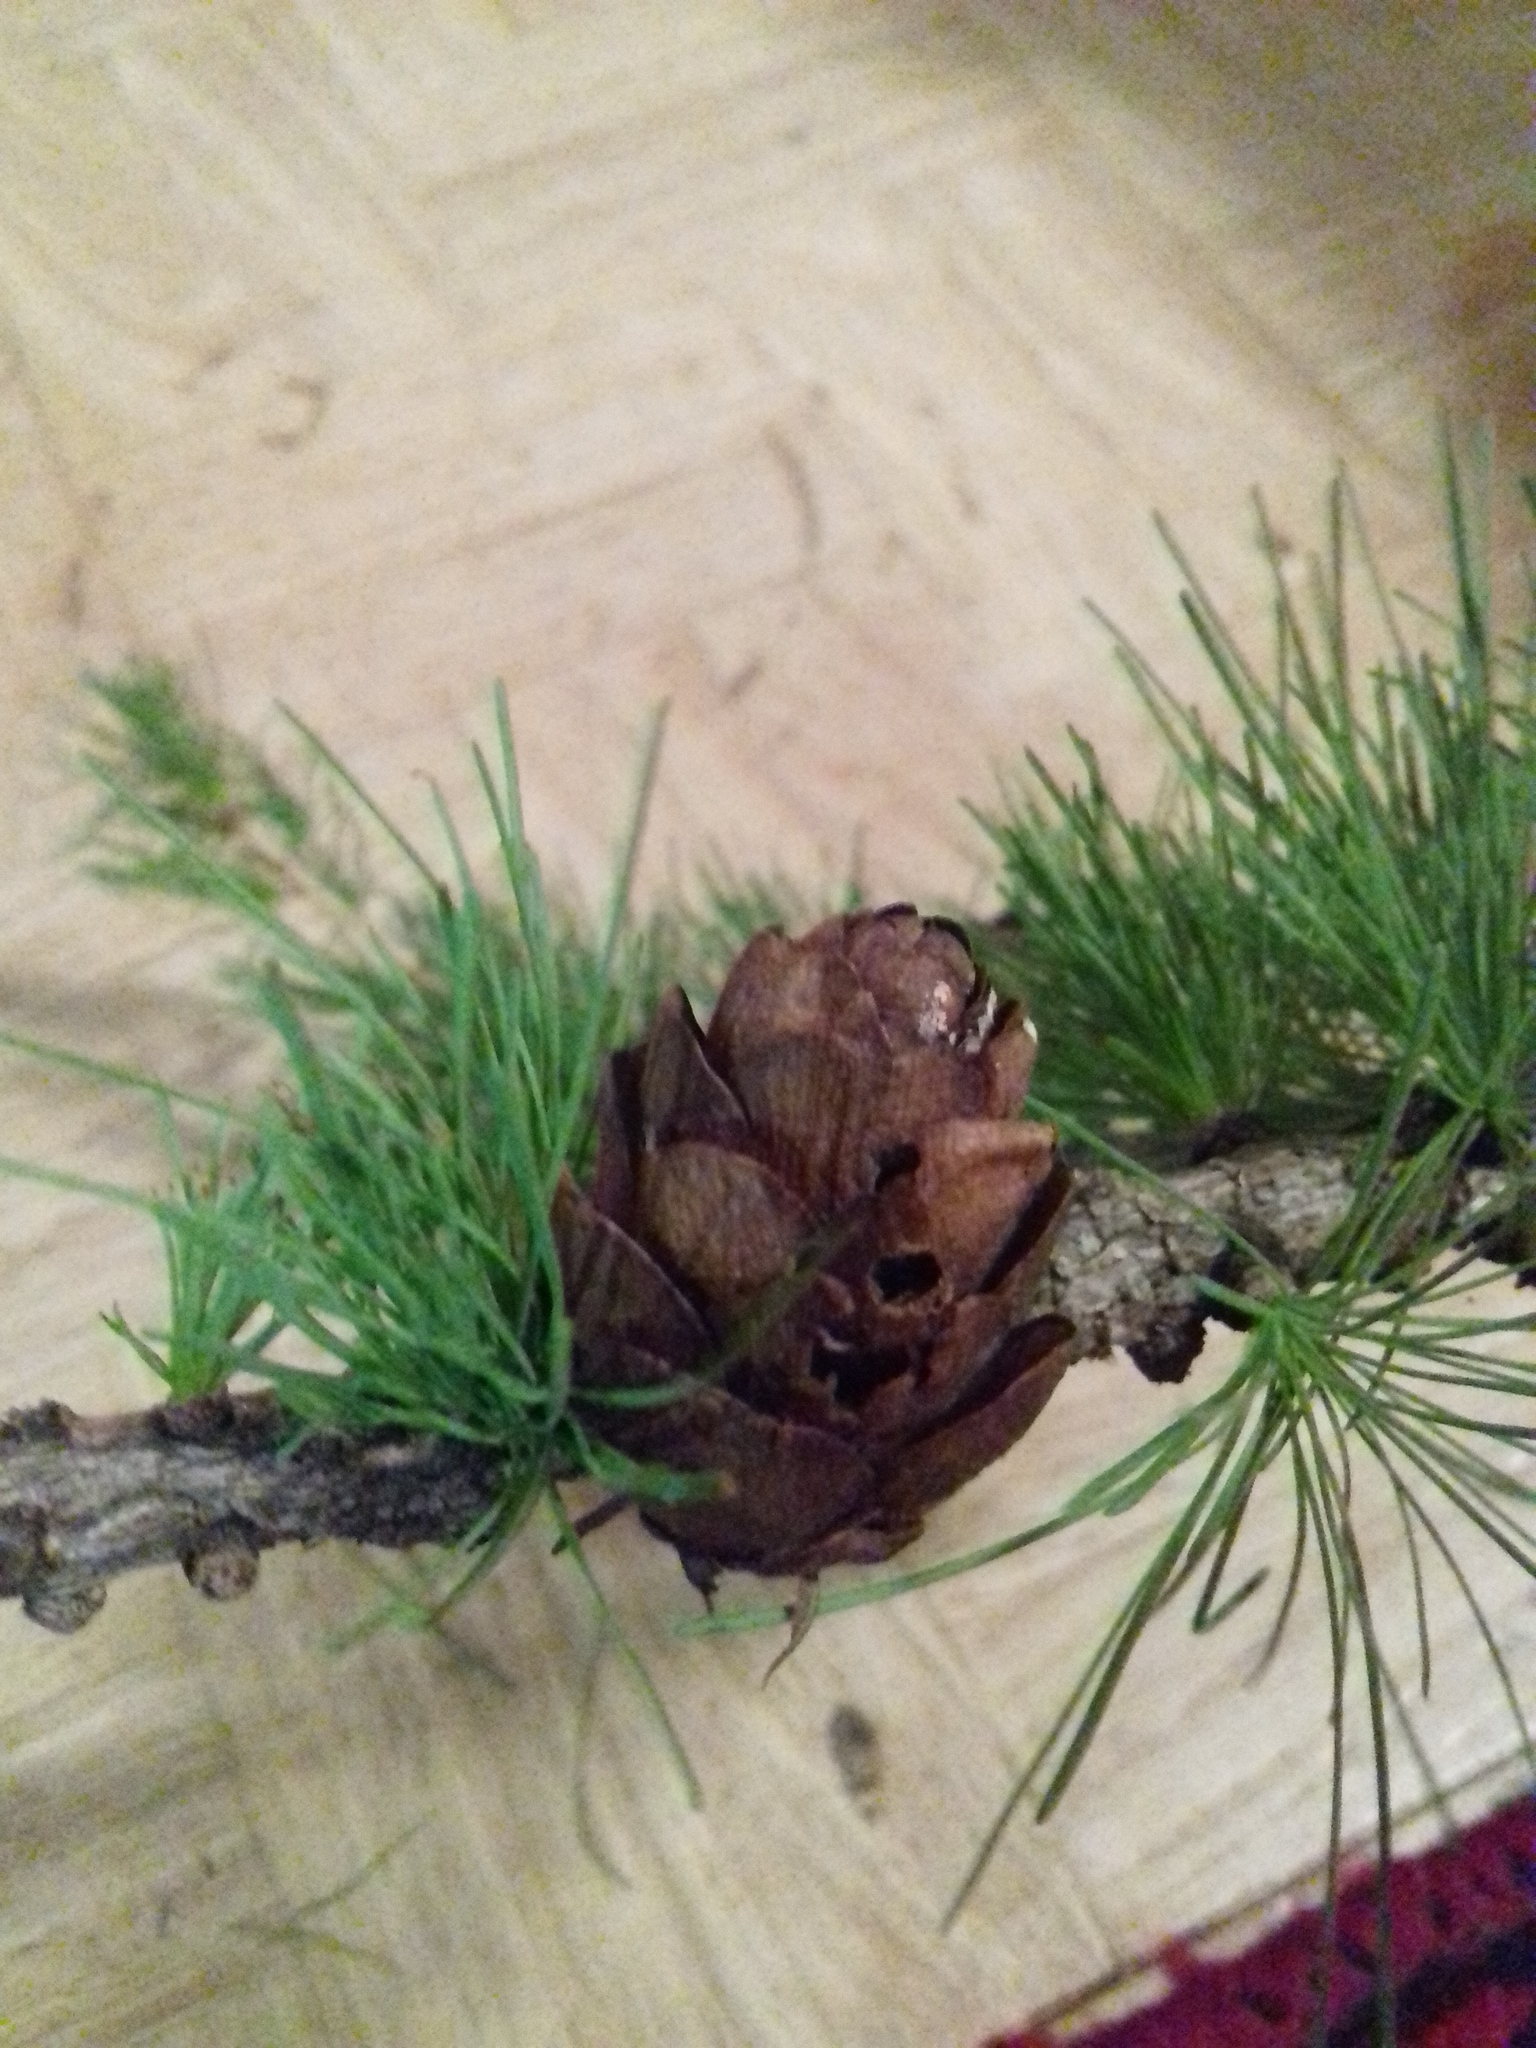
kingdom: Plantae
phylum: Tracheophyta
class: Pinopsida
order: Pinales
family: Pinaceae
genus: Larix
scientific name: Larix sibirica
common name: Siberian larch
